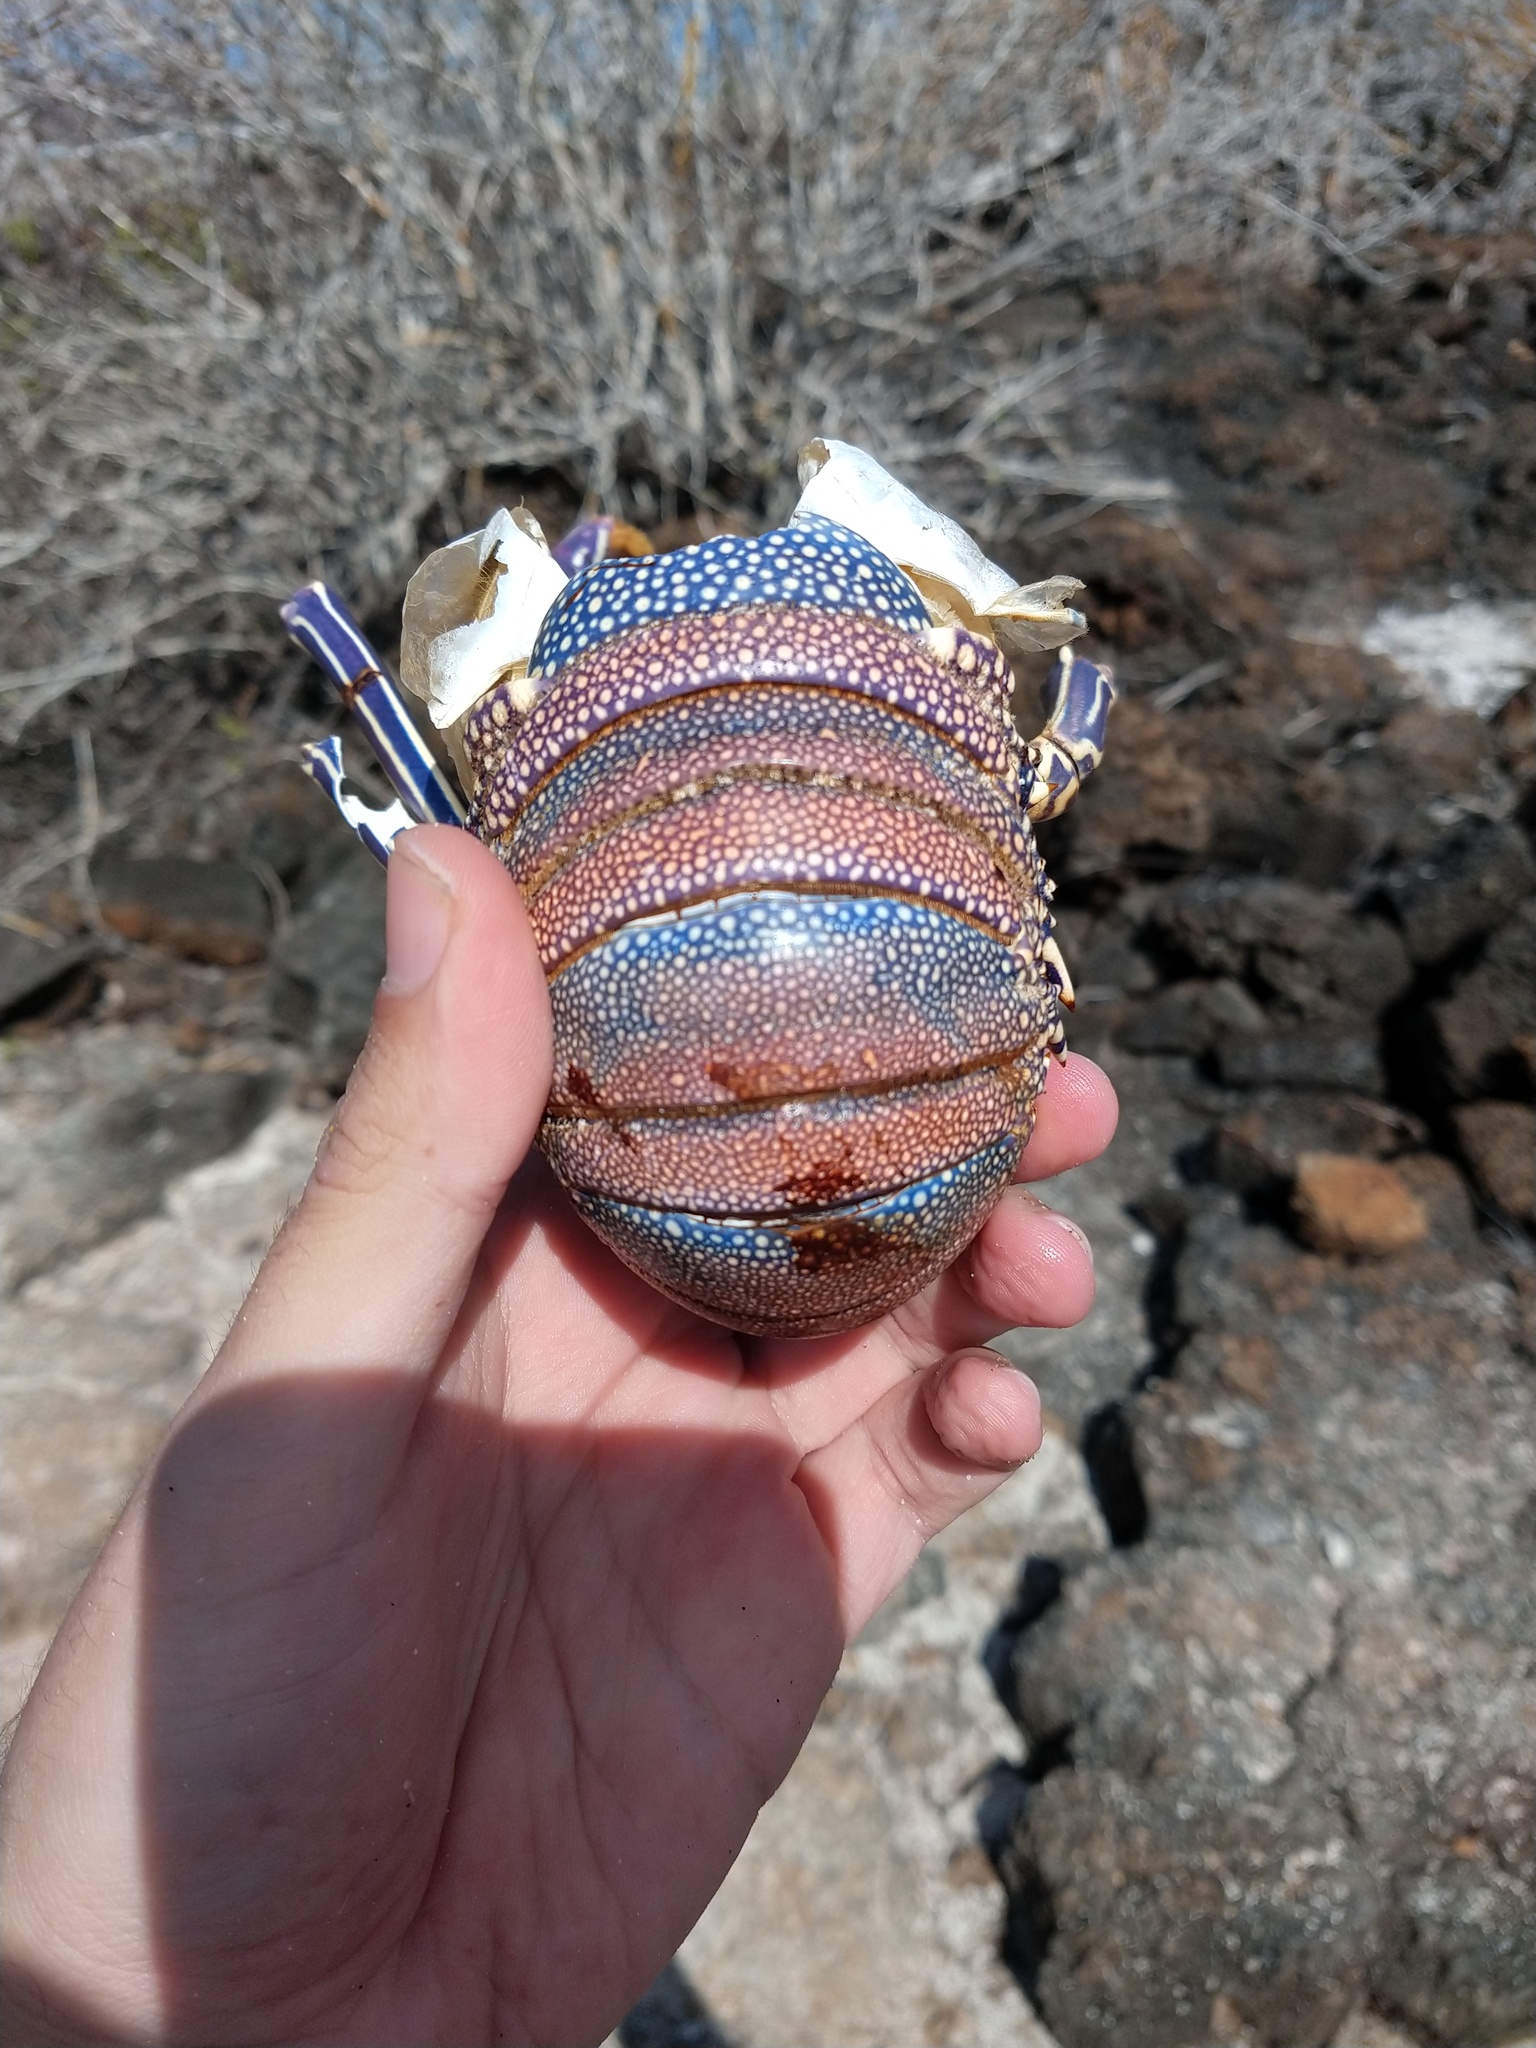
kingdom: Animalia
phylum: Arthropoda
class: Malacostraca
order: Decapoda
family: Palinuridae
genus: Panulirus
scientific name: Panulirus penicillatus
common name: Pronghorn spiny lobster
